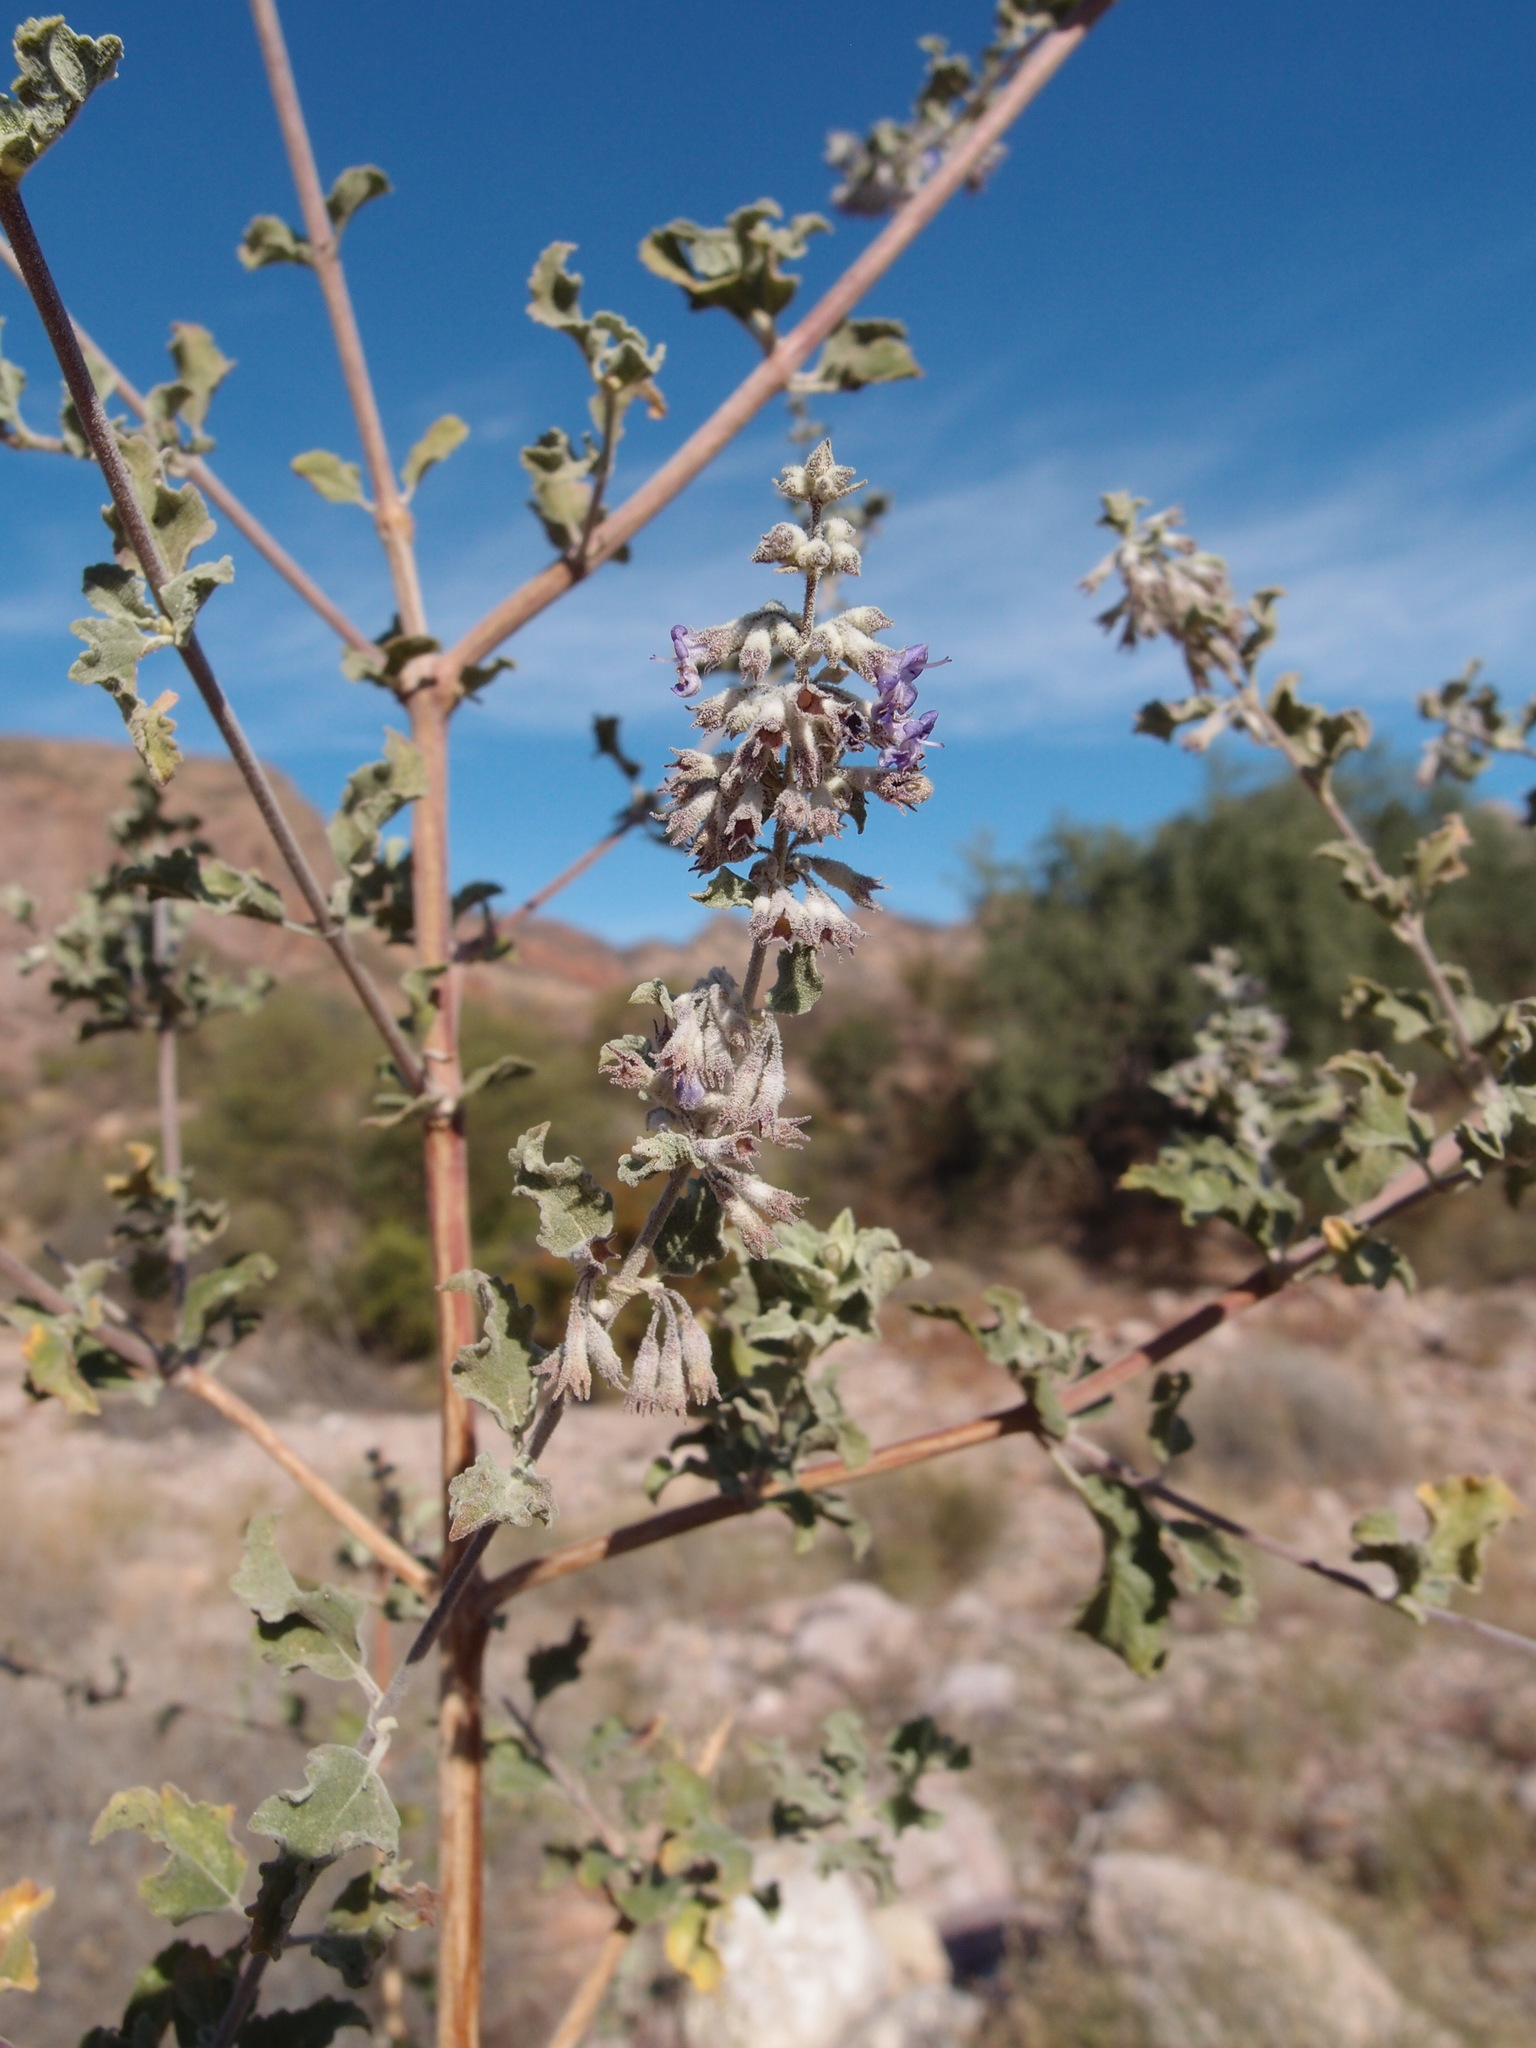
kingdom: Plantae
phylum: Tracheophyta
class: Magnoliopsida
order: Lamiales
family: Lamiaceae
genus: Condea
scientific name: Condea emoryi
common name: Chia
